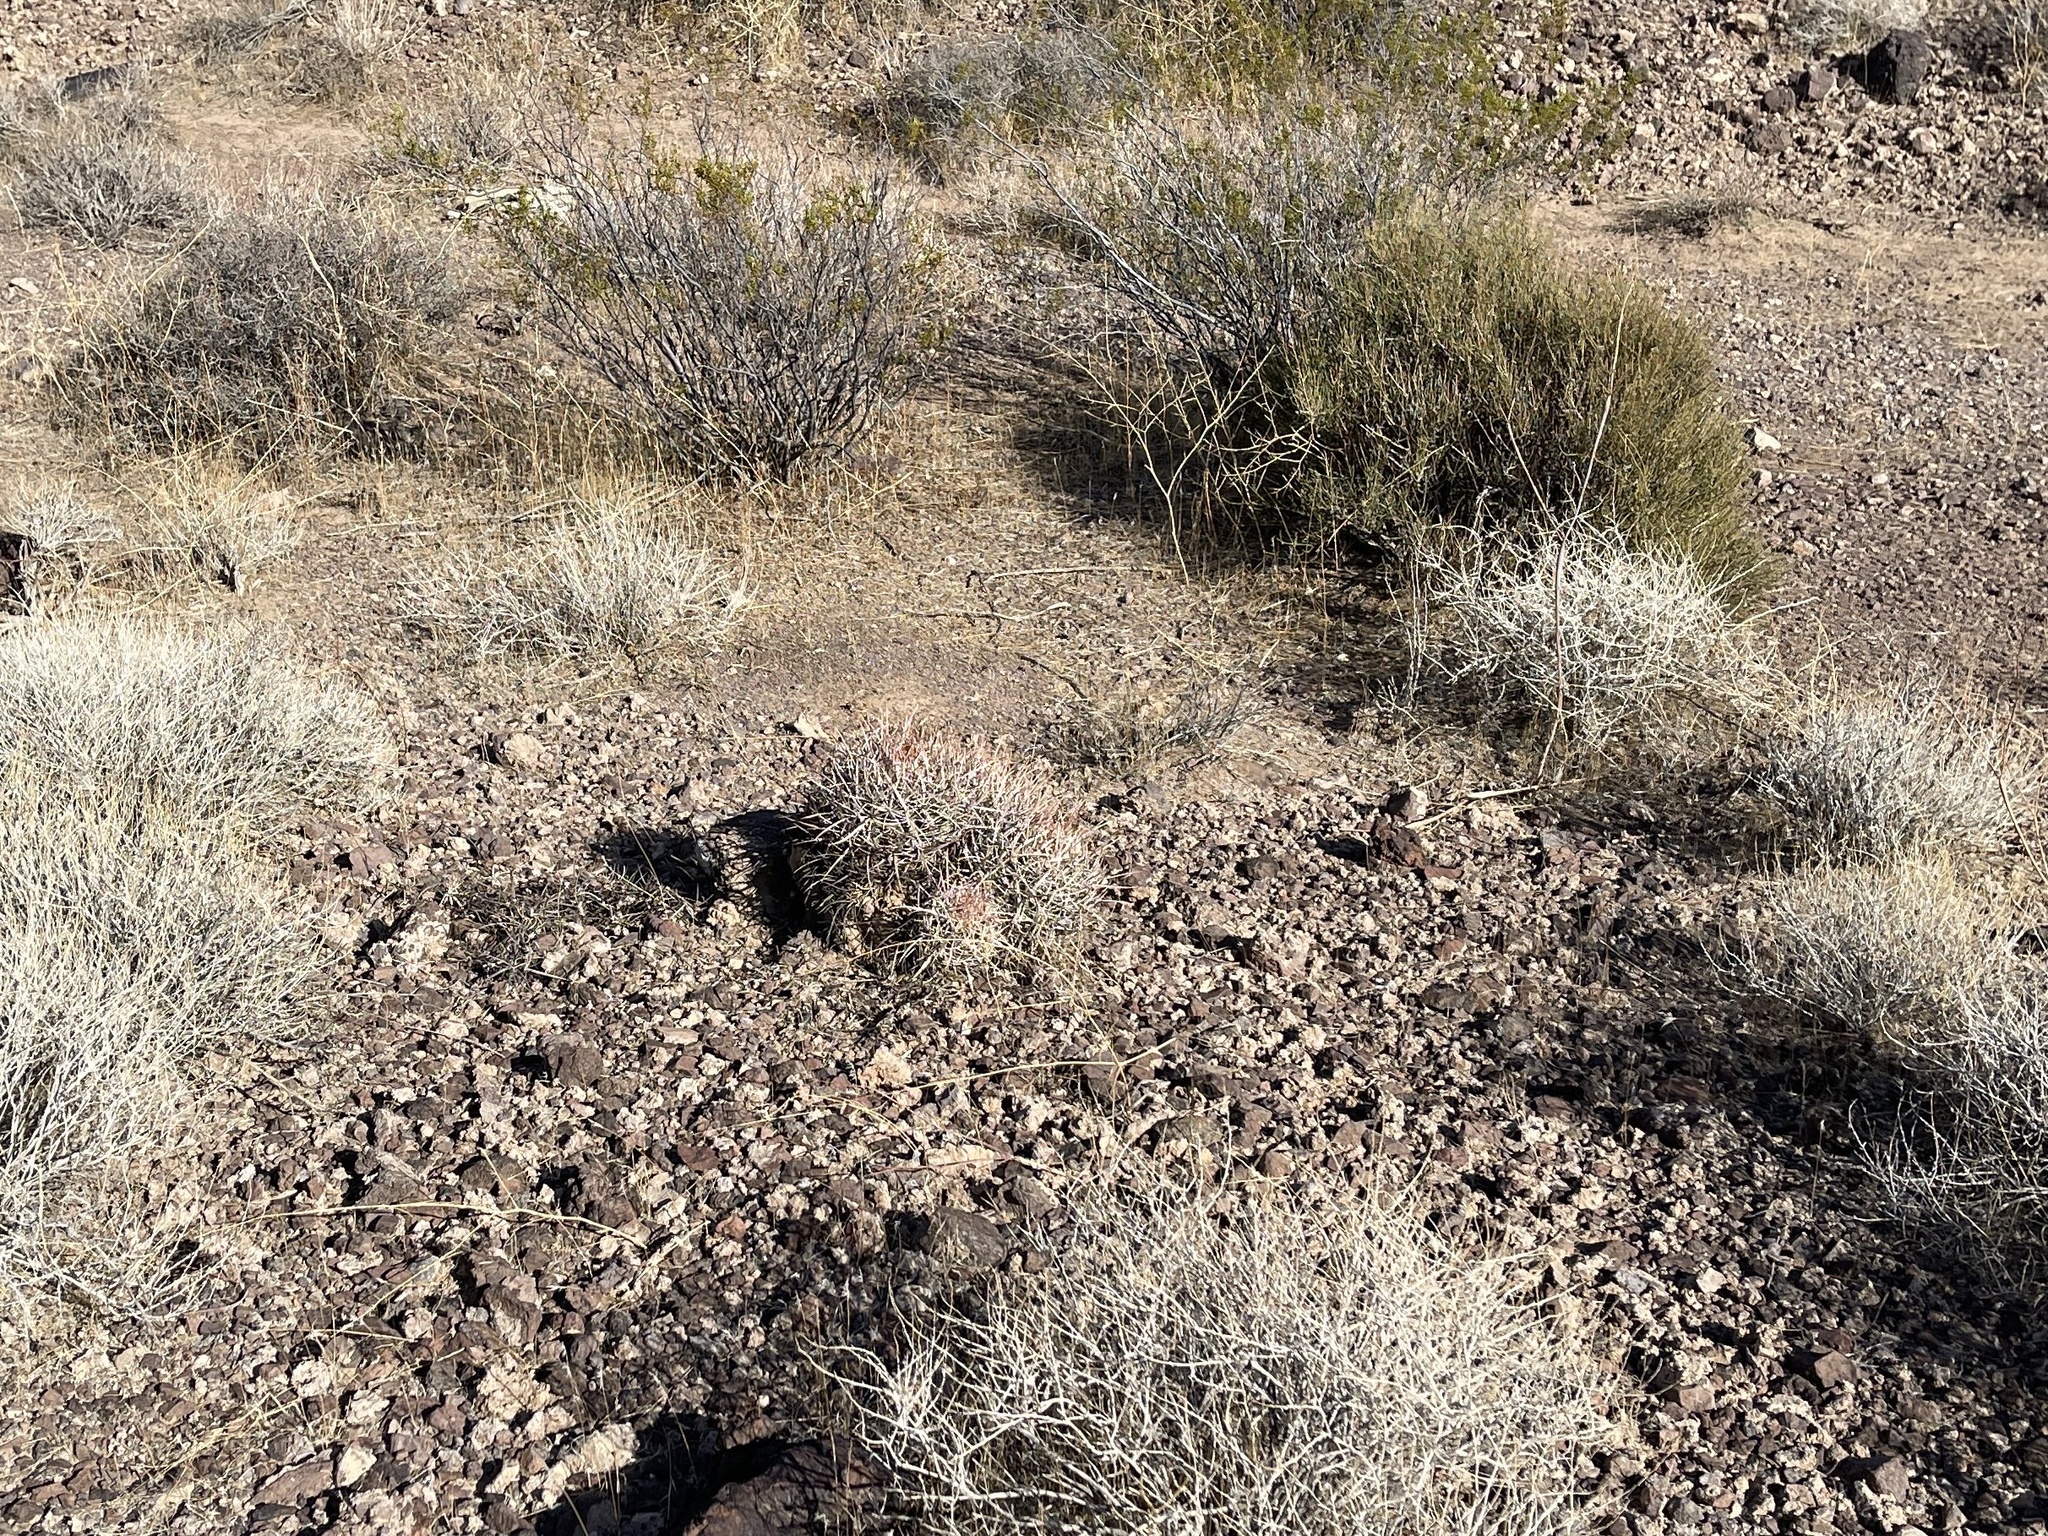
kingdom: Plantae
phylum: Tracheophyta
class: Magnoliopsida
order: Caryophyllales
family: Cactaceae
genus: Echinocactus
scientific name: Echinocactus polycephalus
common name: Cottontop cactus
